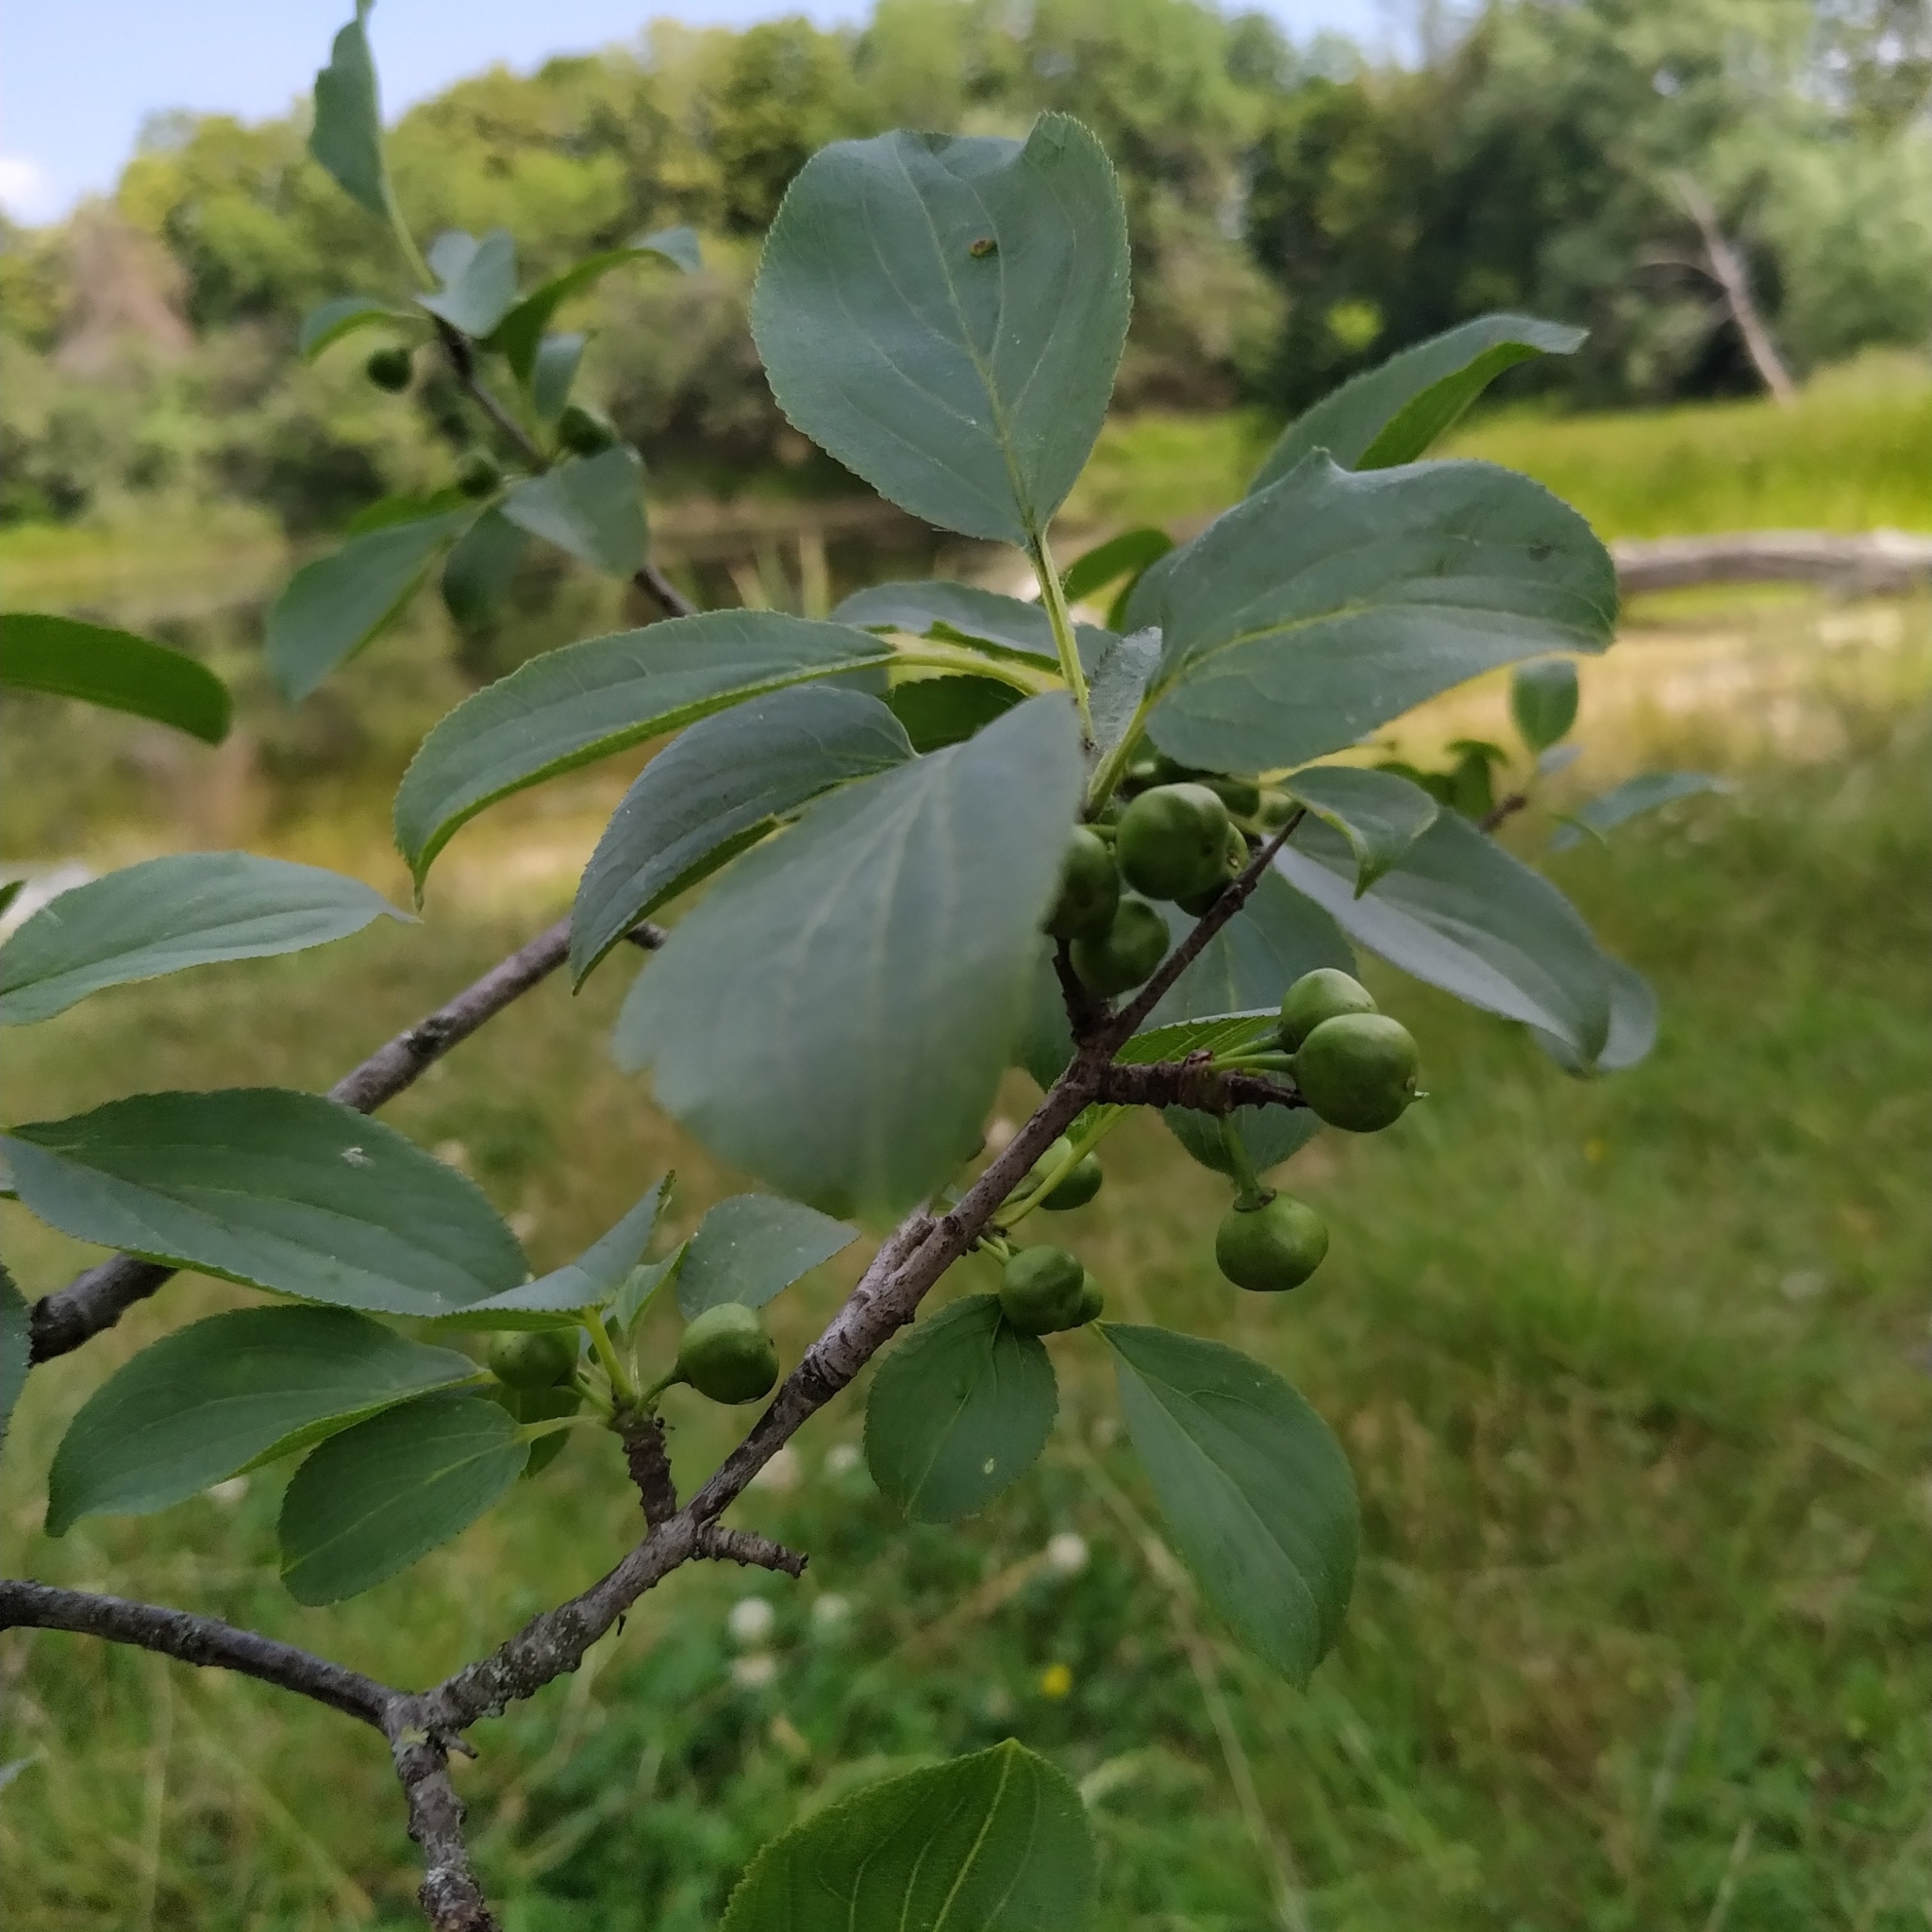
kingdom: Plantae
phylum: Tracheophyta
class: Magnoliopsida
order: Rosales
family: Rhamnaceae
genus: Rhamnus
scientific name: Rhamnus cathartica
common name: Common buckthorn
